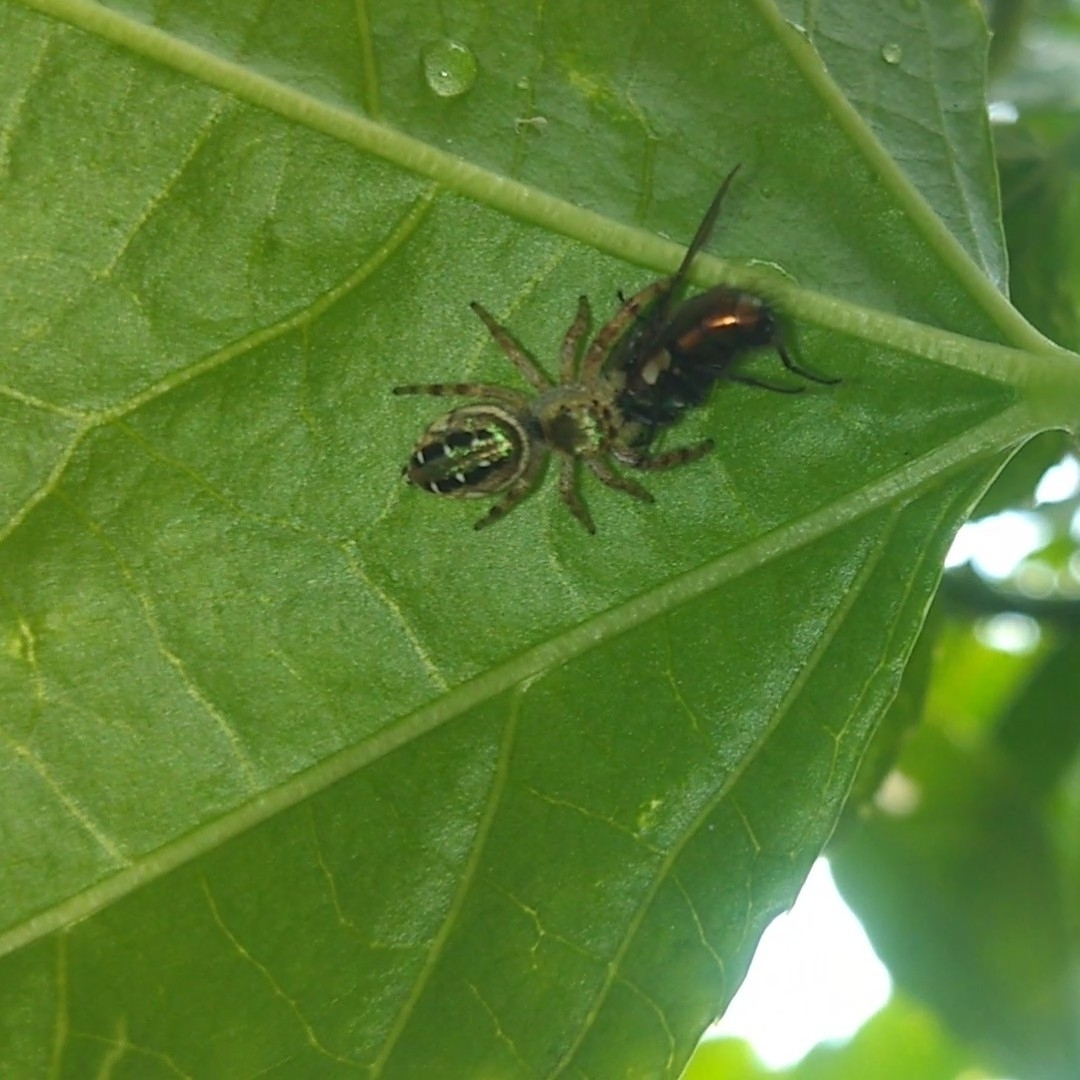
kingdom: Animalia
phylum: Arthropoda
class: Arachnida
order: Araneae
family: Salticidae
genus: Paraphidippus
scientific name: Paraphidippus aurantius
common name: Jumping spiders
